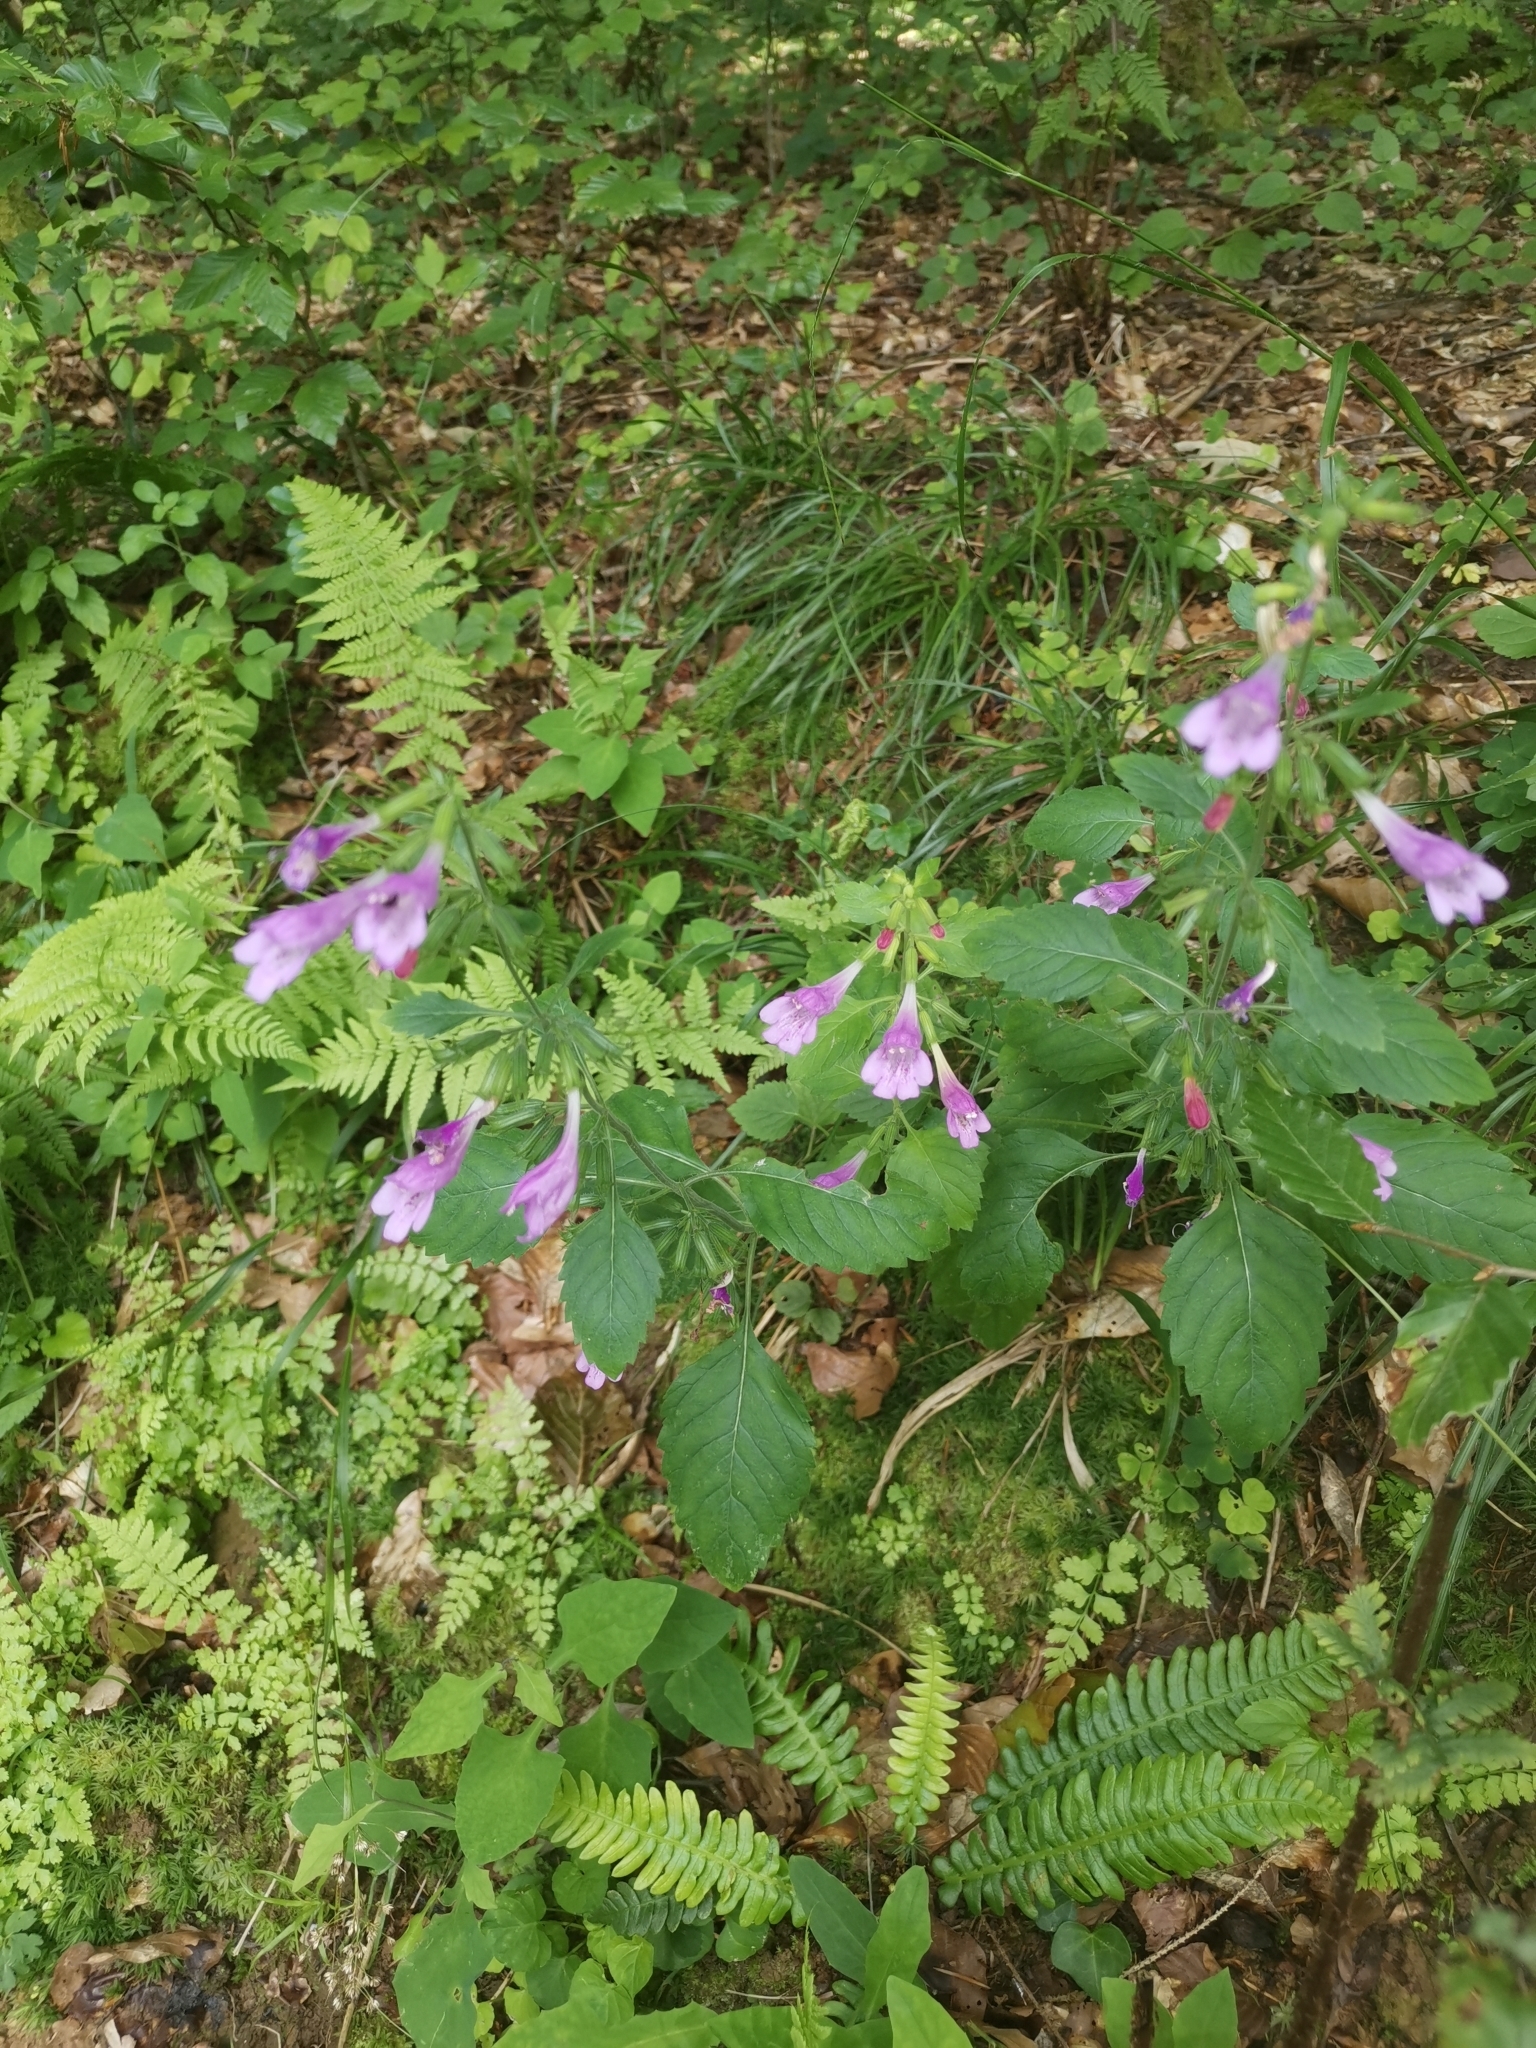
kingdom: Plantae
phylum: Tracheophyta
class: Magnoliopsida
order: Lamiales
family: Lamiaceae
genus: Clinopodium
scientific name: Clinopodium grandiflorum
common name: Greater calamint
